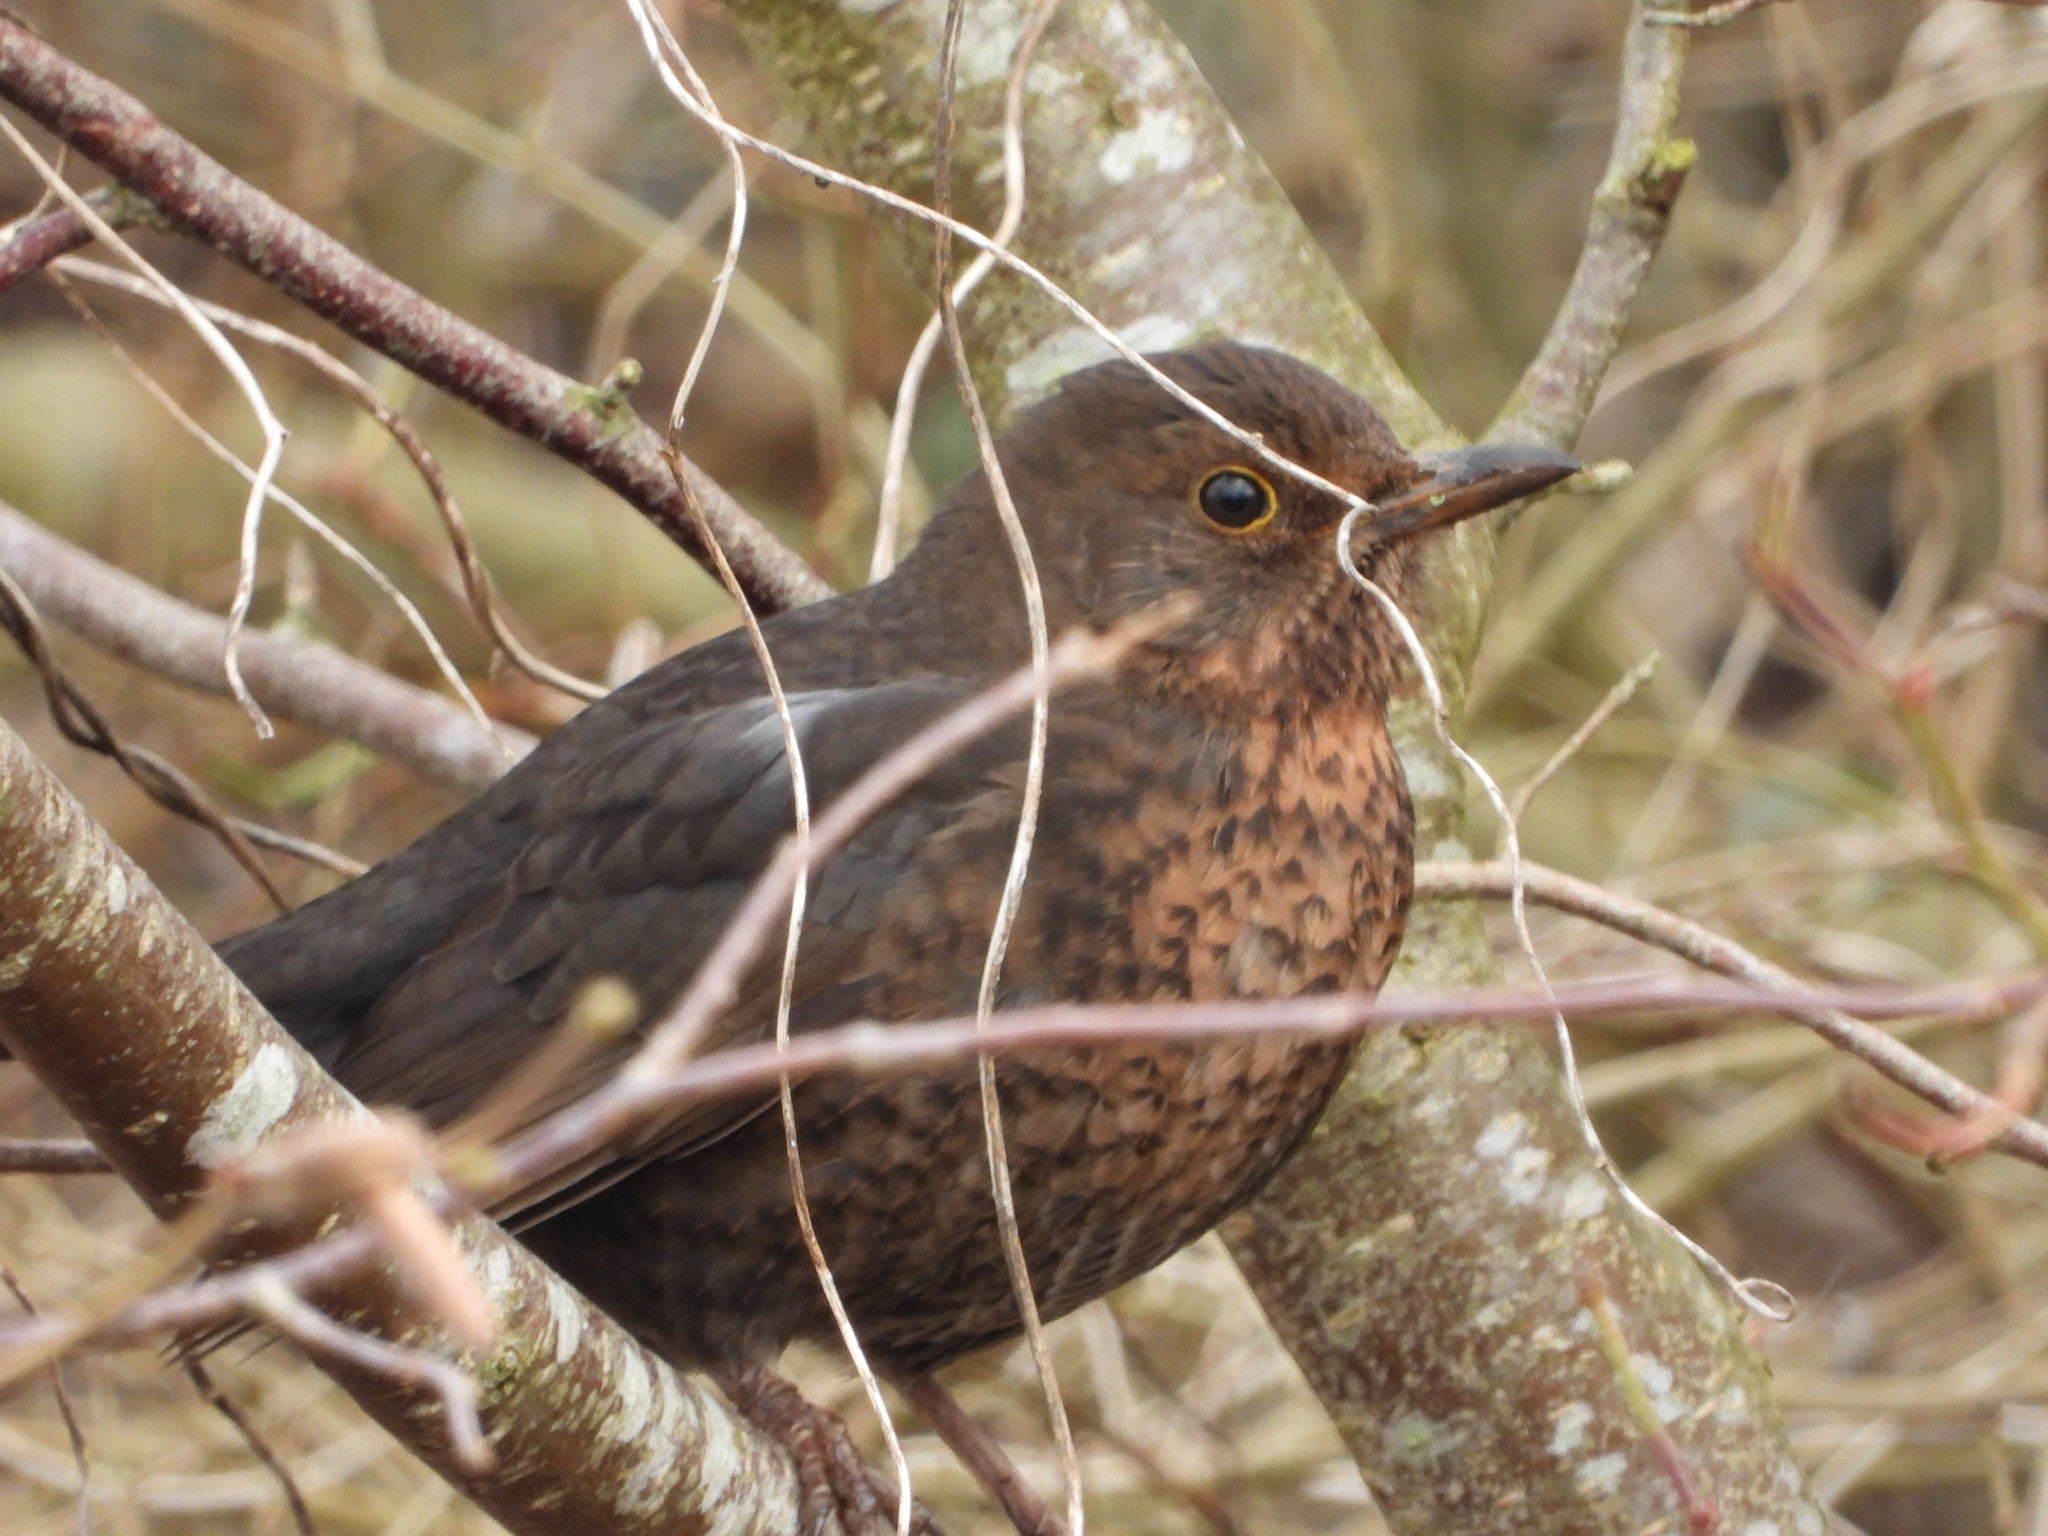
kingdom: Animalia
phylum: Chordata
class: Aves
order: Passeriformes
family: Turdidae
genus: Turdus
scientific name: Turdus merula
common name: Common blackbird
